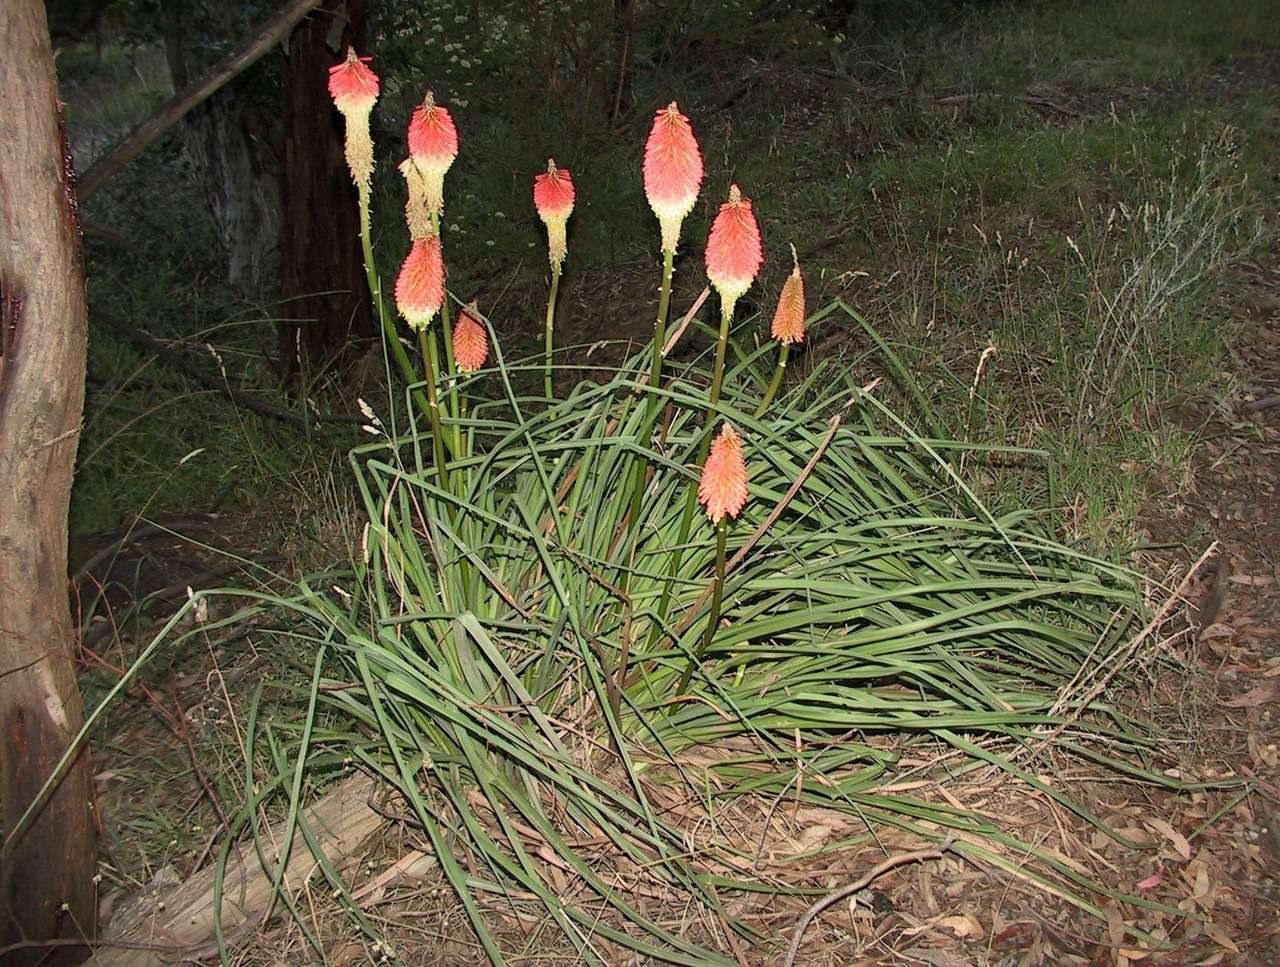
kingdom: Plantae
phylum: Tracheophyta
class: Liliopsida
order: Asparagales
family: Asphodelaceae
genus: Kniphofia
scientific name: Kniphofia uvaria
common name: Red-hot-poker
